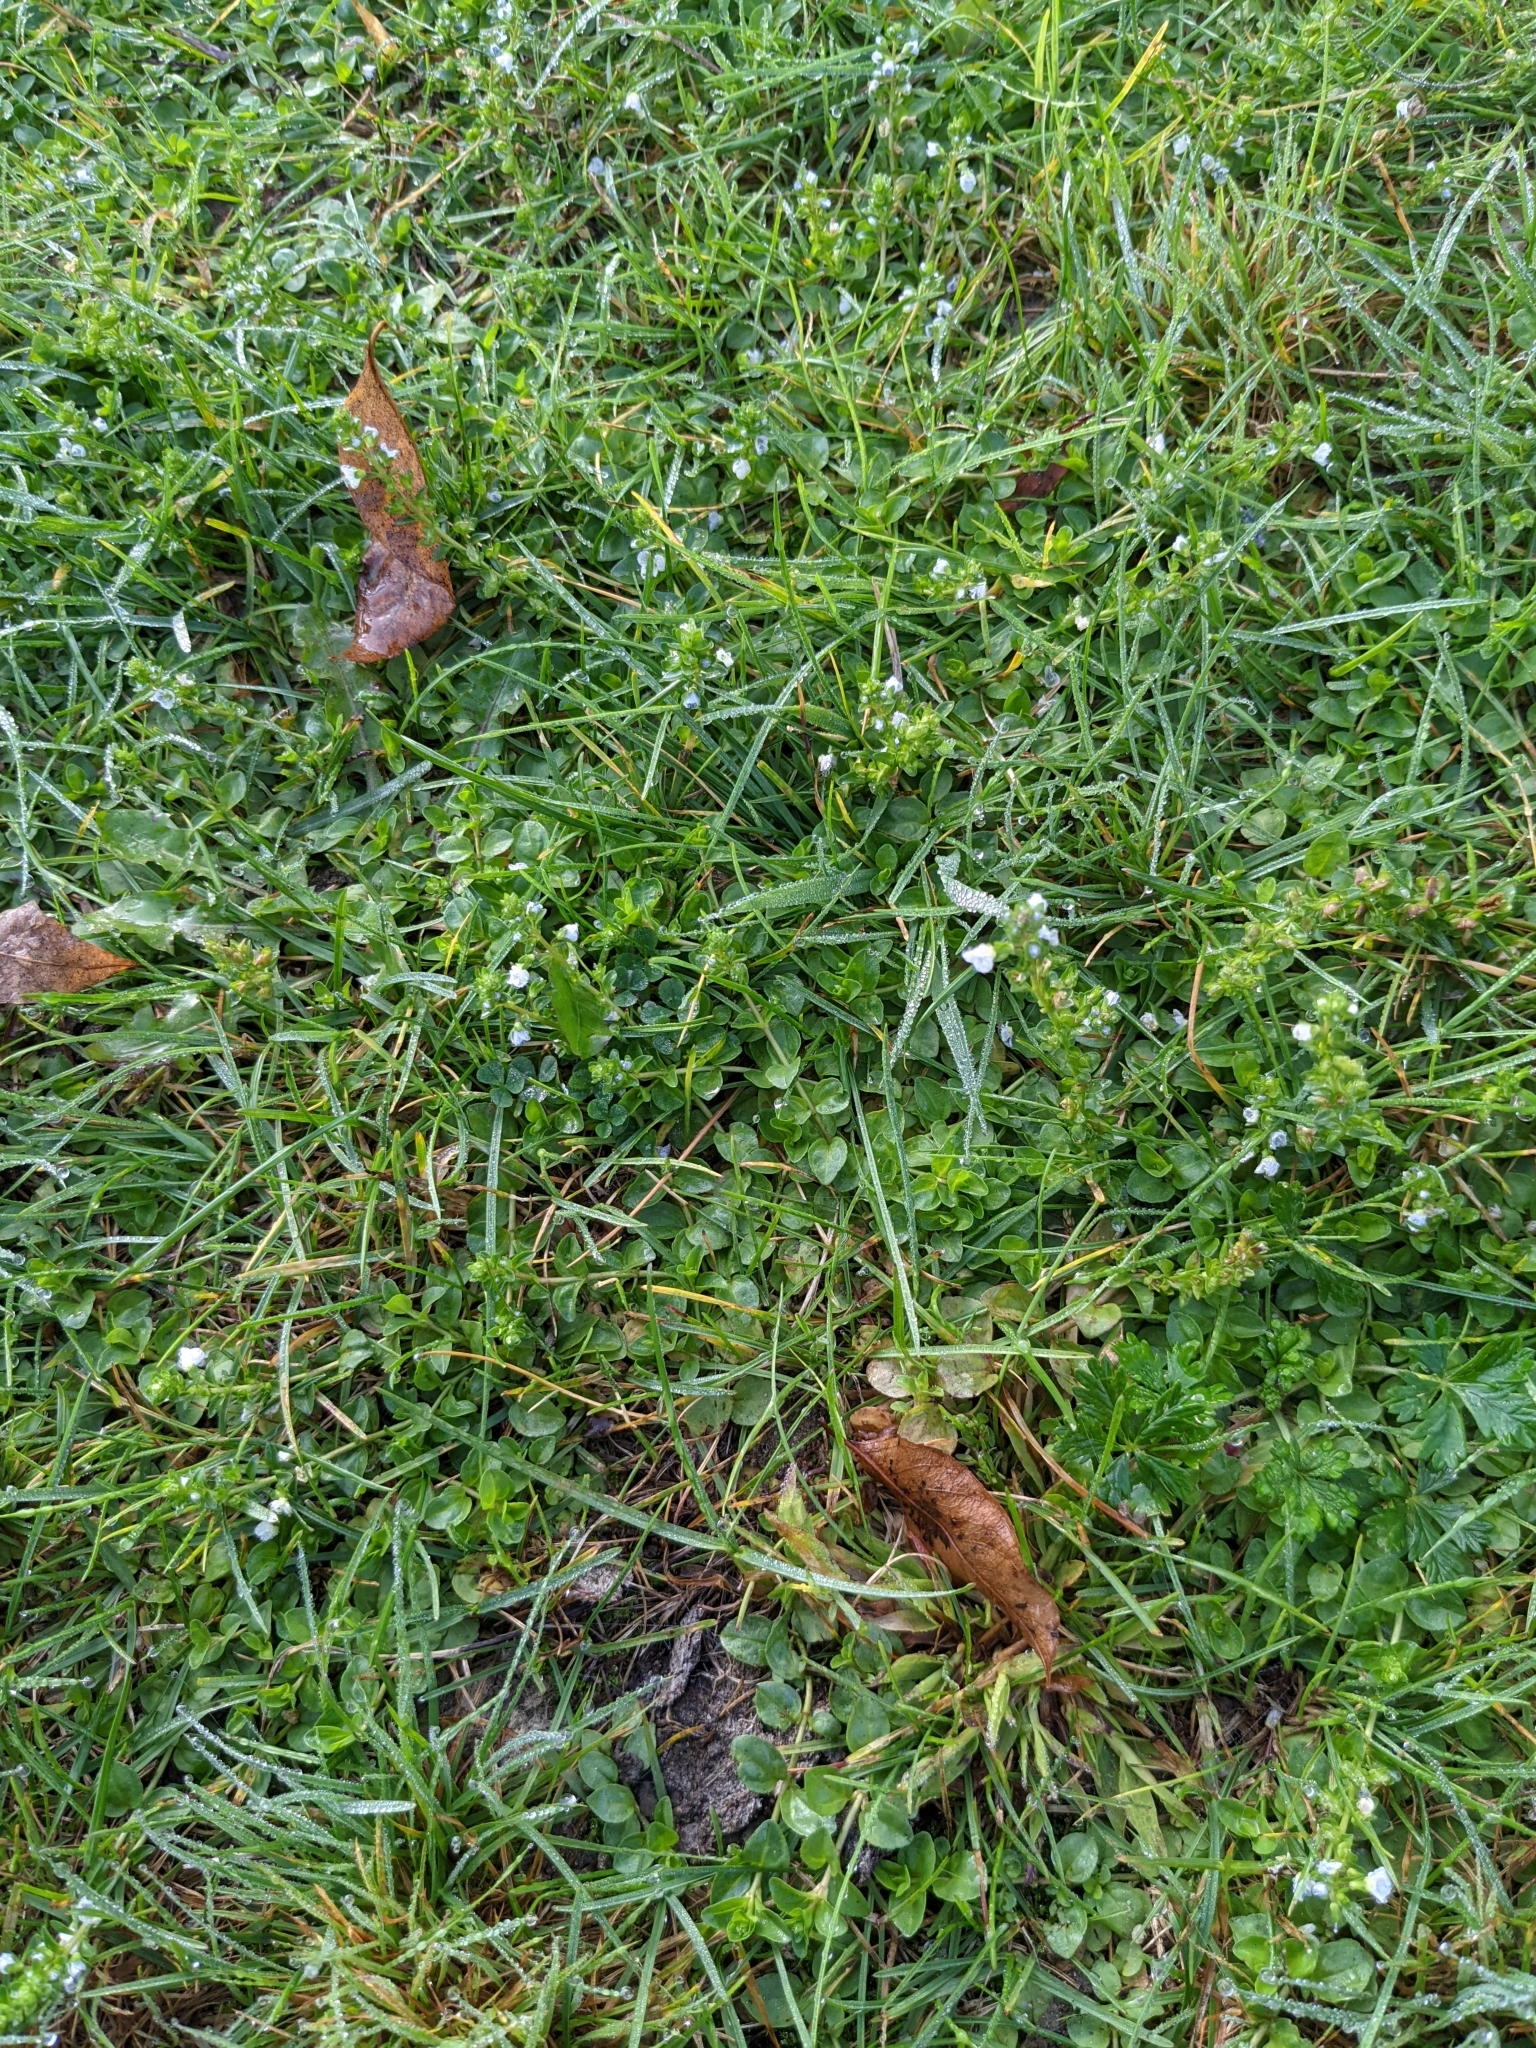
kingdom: Plantae
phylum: Tracheophyta
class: Magnoliopsida
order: Lamiales
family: Plantaginaceae
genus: Veronica
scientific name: Veronica serpyllifolia
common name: Thyme-leaved speedwell
